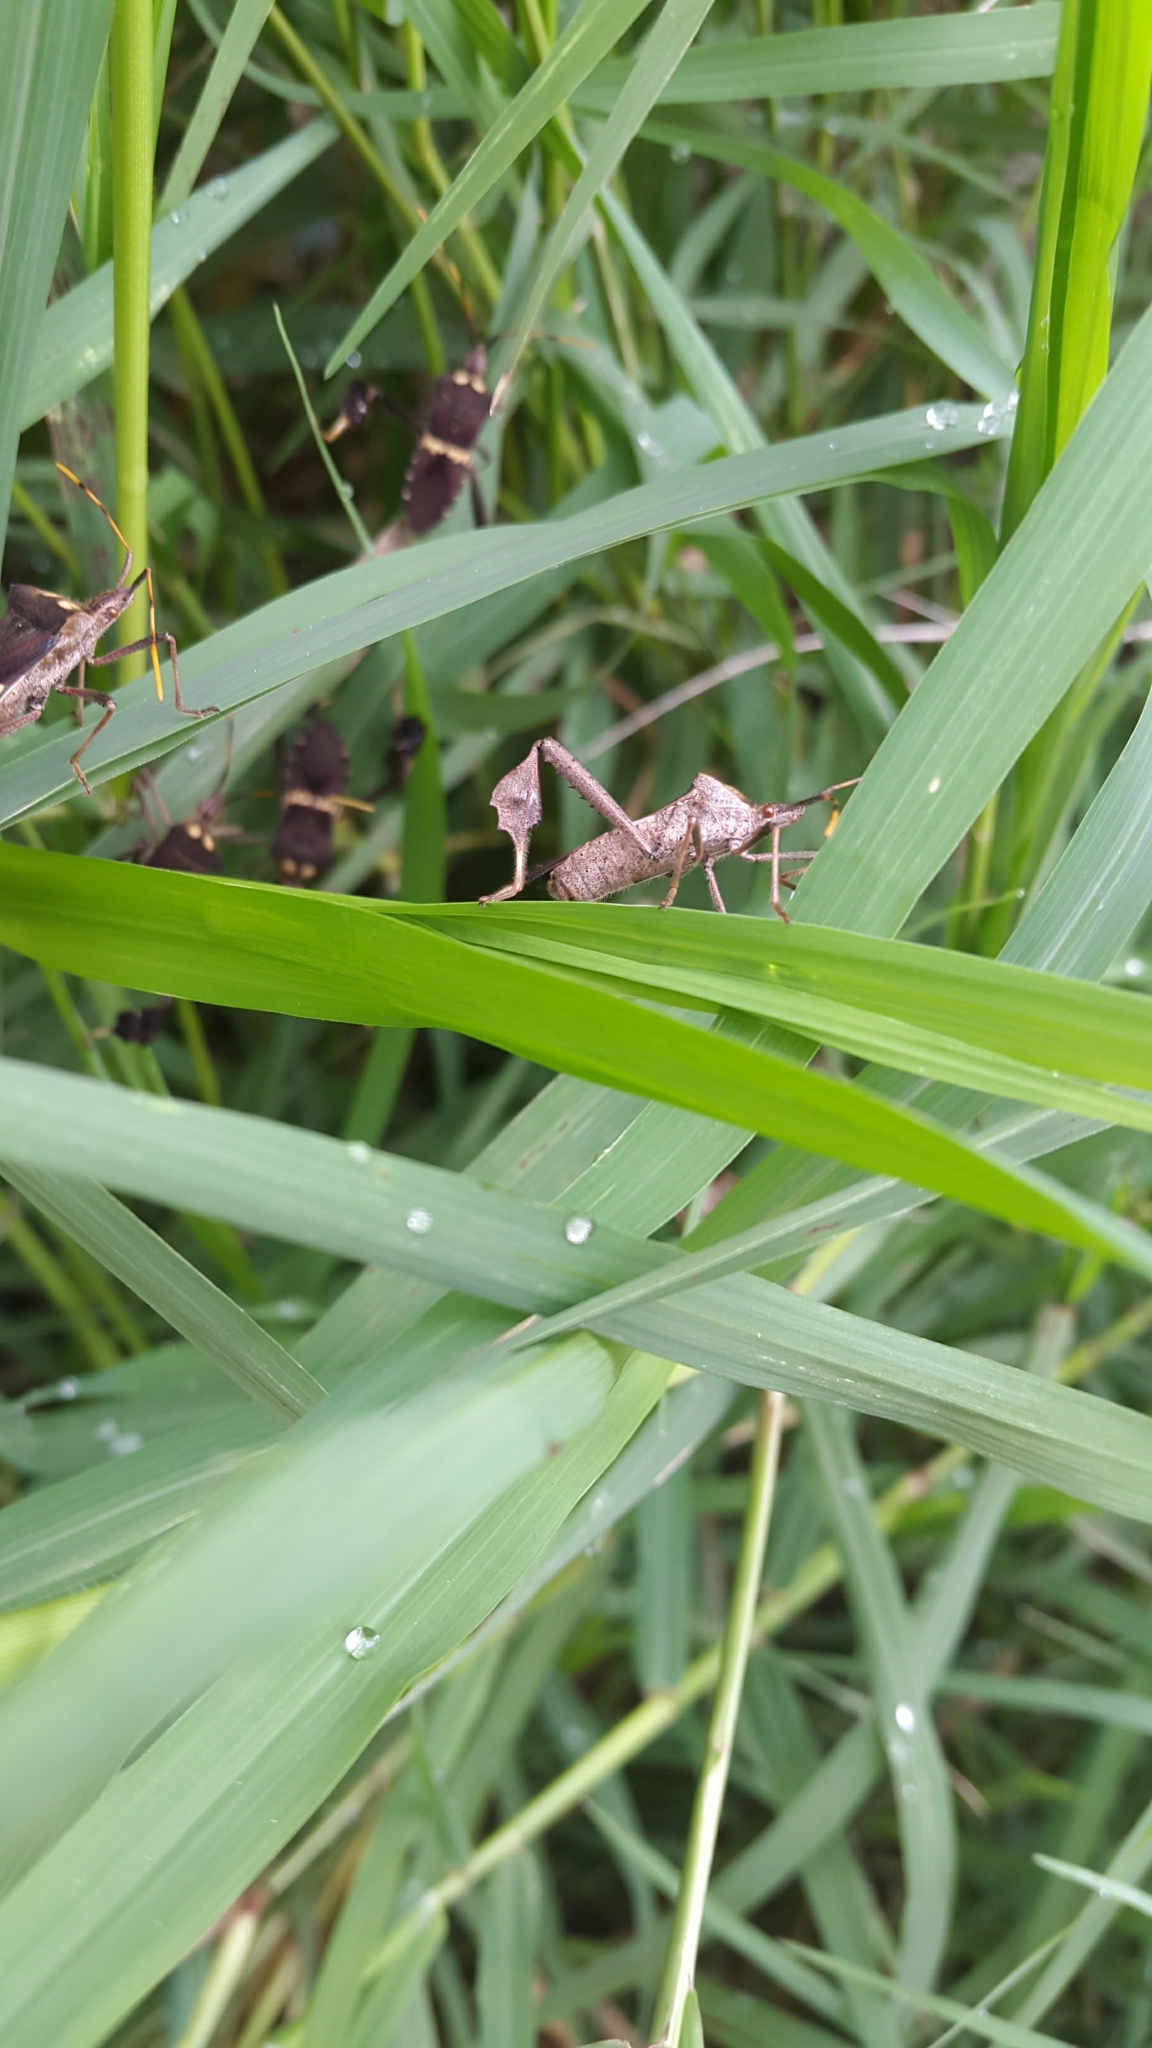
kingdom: Animalia
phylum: Arthropoda
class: Insecta
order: Hemiptera
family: Coreidae
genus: Leptoglossus
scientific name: Leptoglossus zonatus
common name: Large-legged bug
